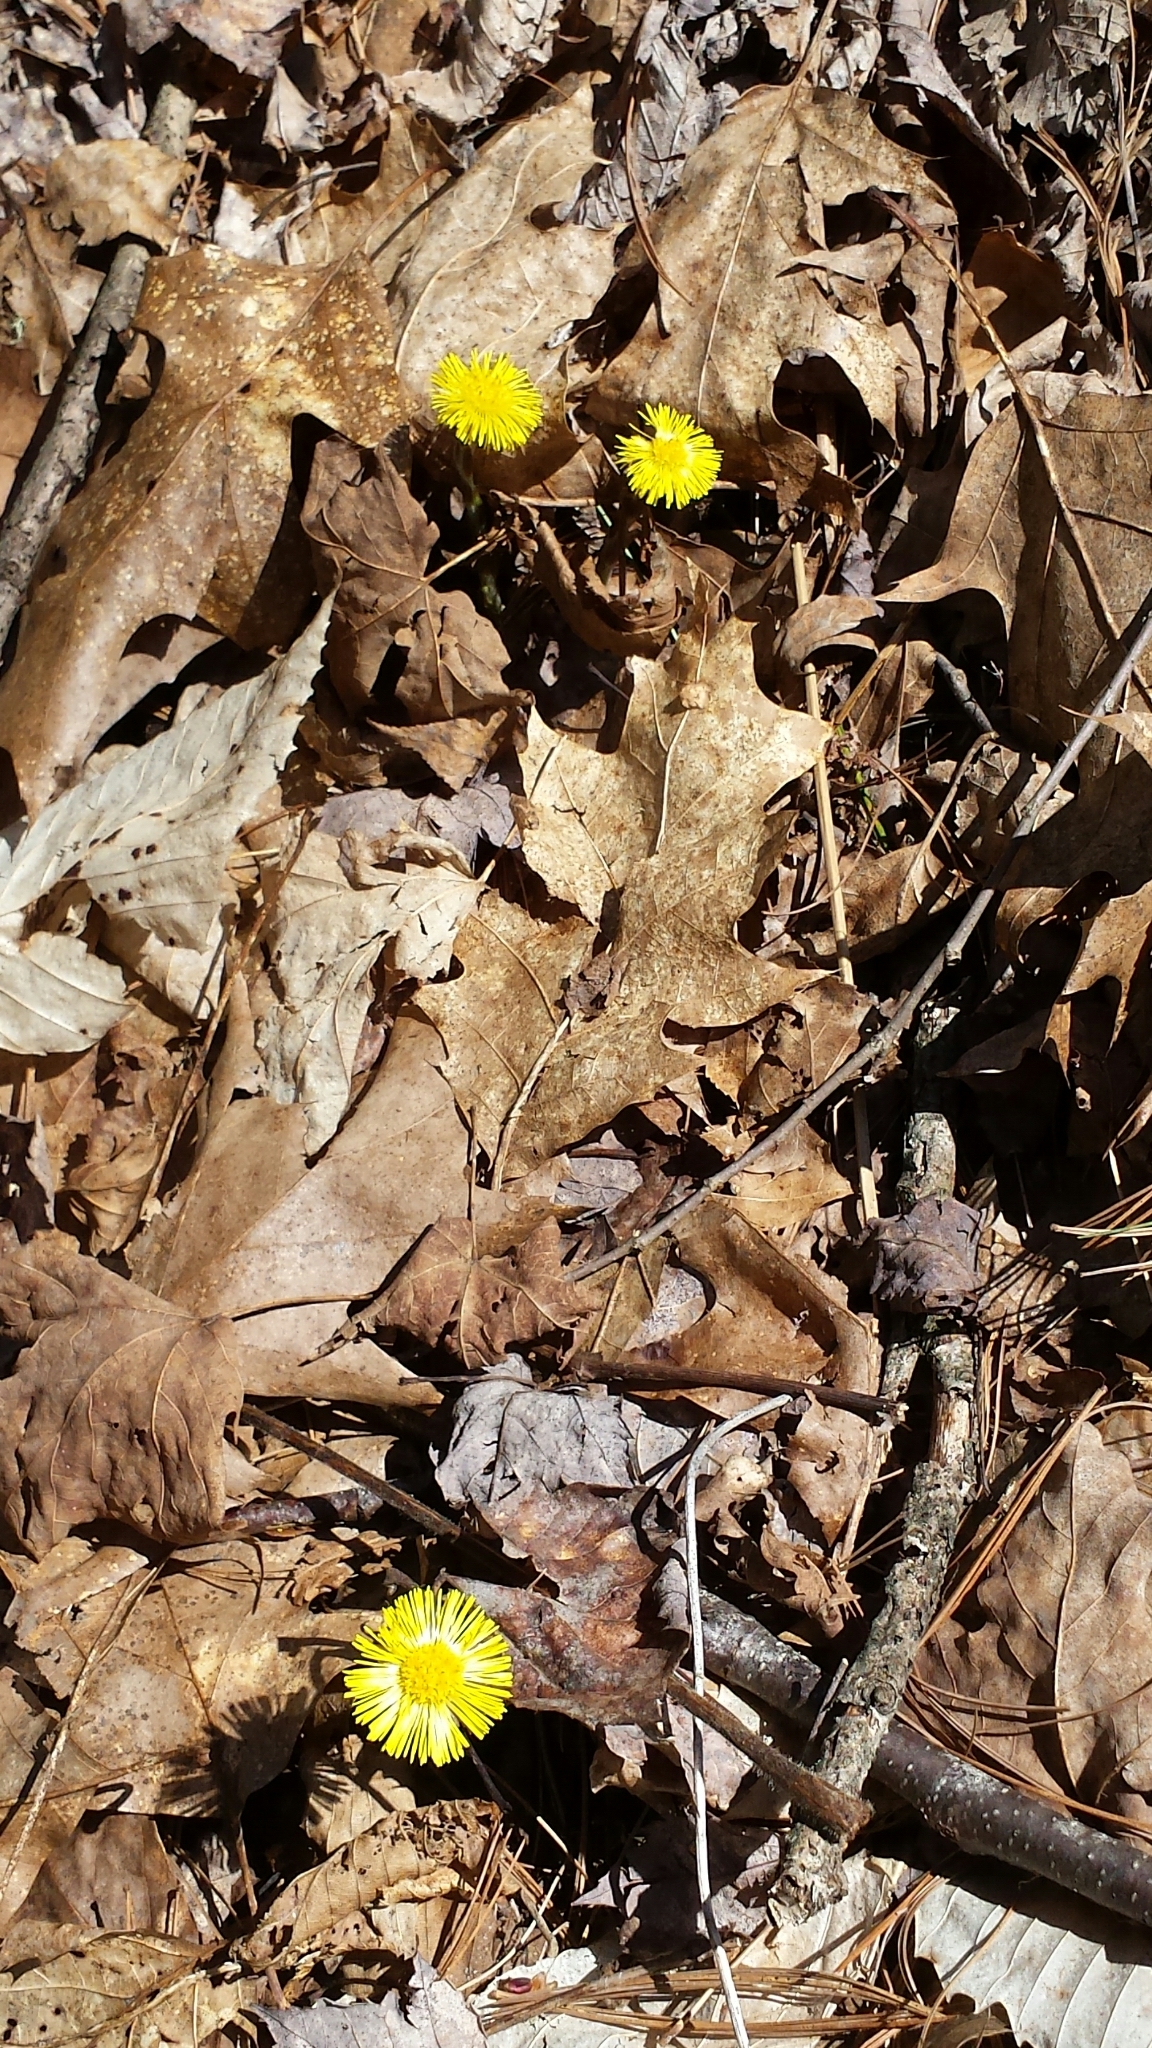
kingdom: Plantae
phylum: Tracheophyta
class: Magnoliopsida
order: Asterales
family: Asteraceae
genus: Tussilago
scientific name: Tussilago farfara
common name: Coltsfoot
